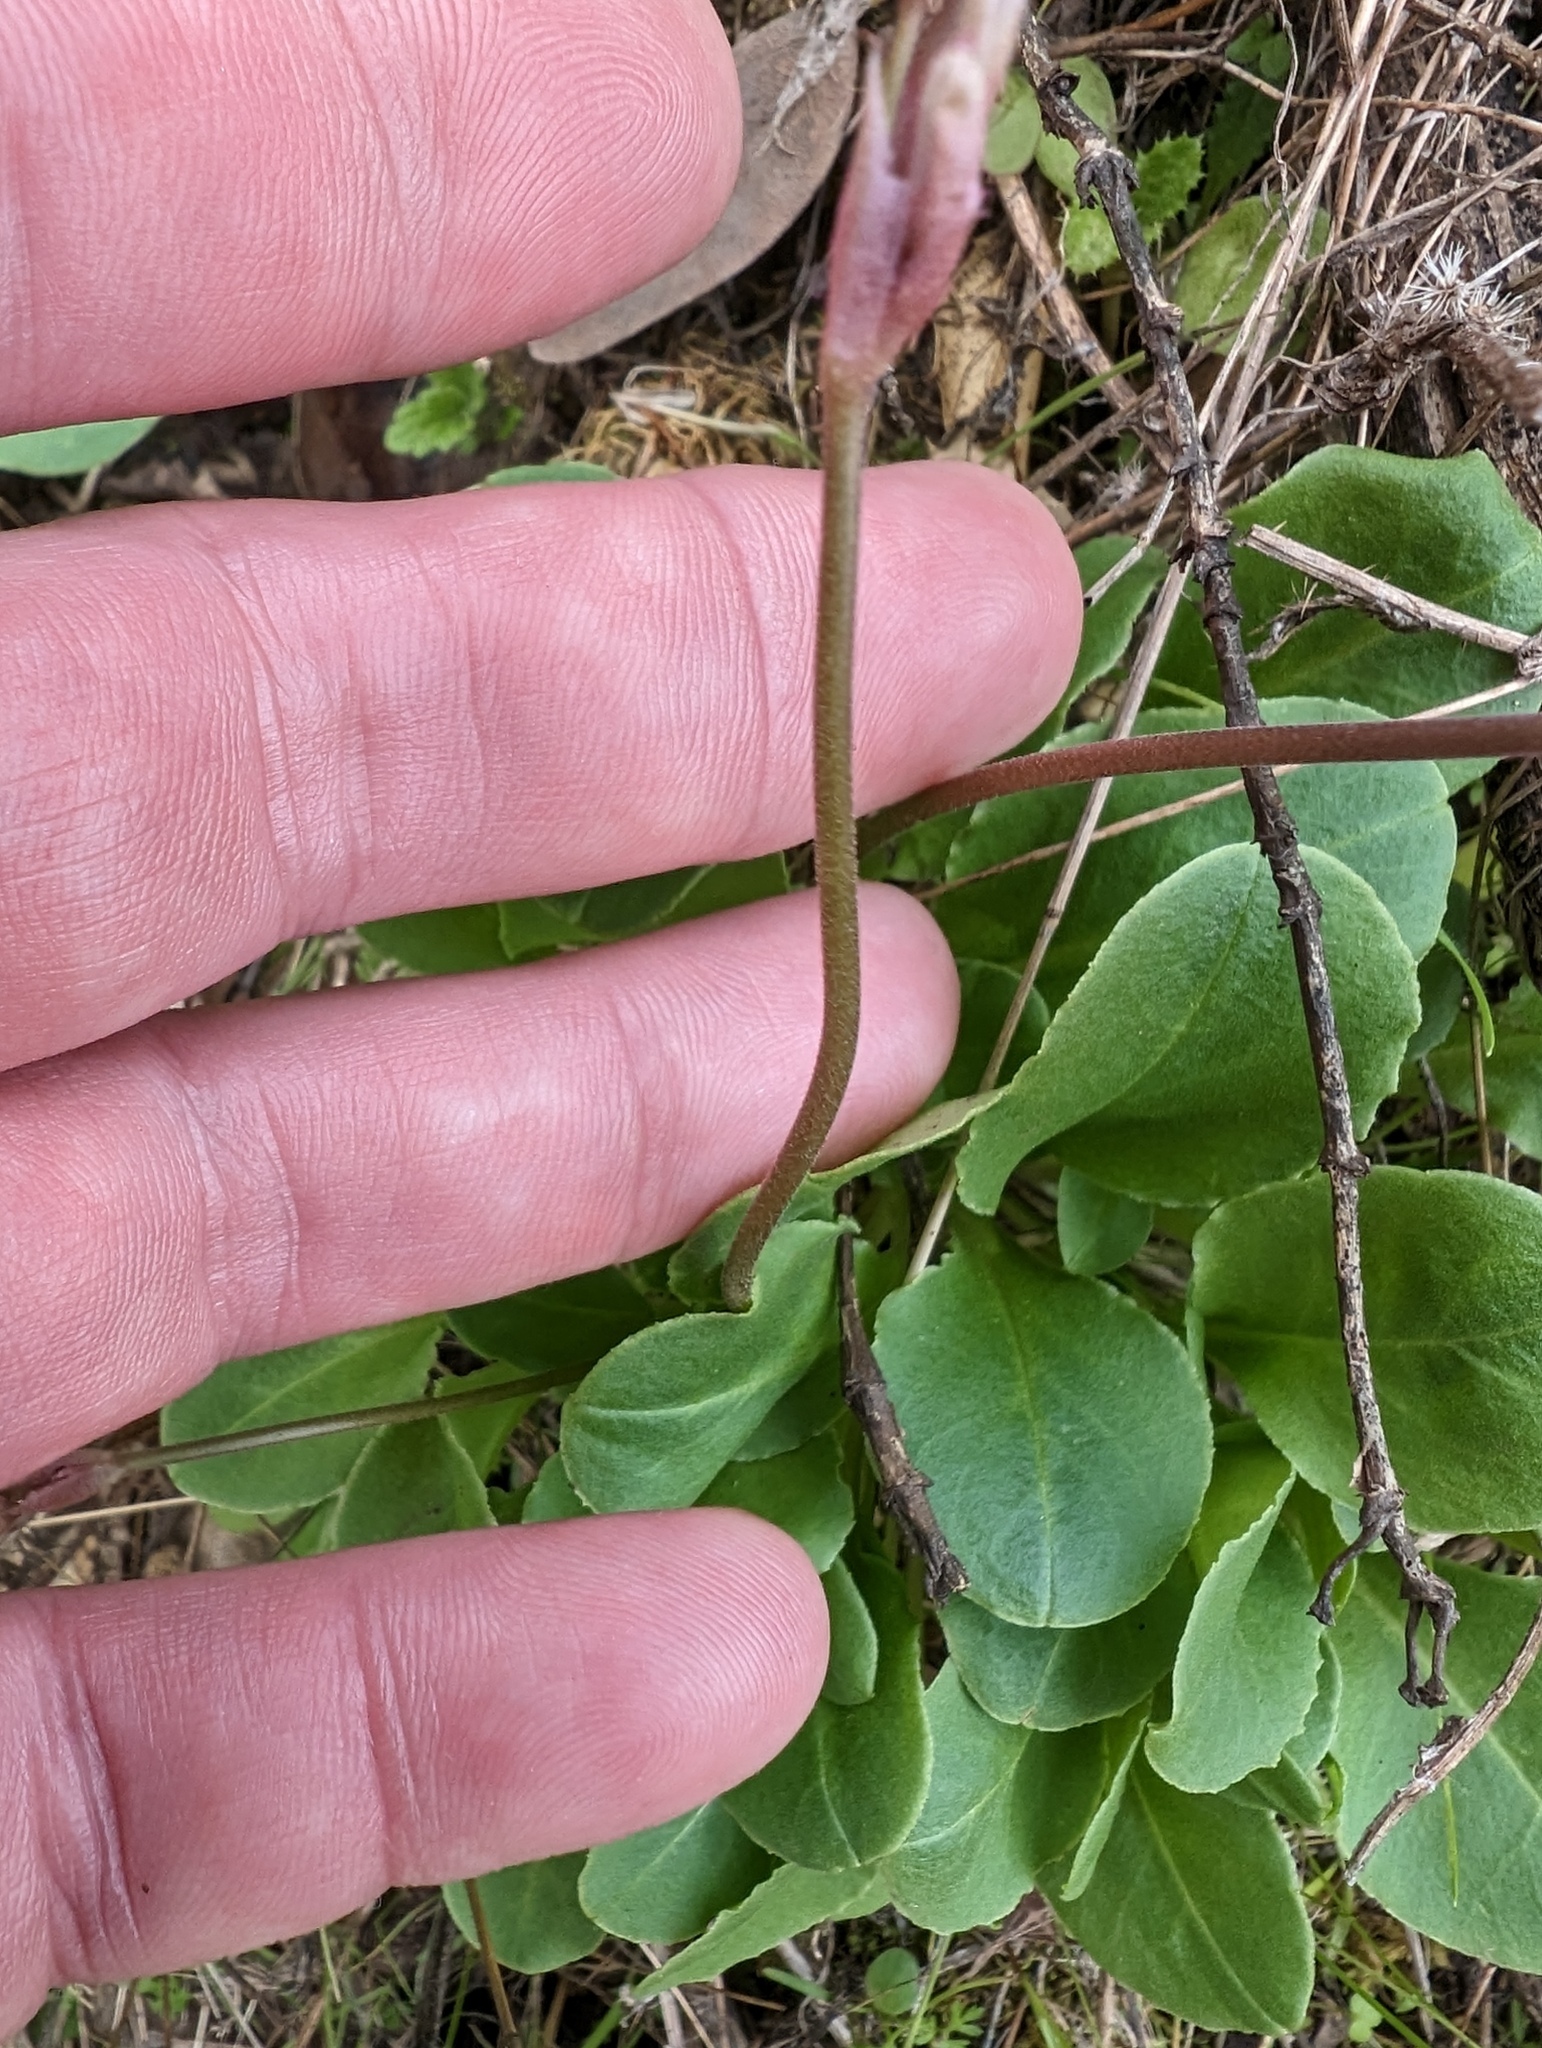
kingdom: Plantae
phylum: Tracheophyta
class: Magnoliopsida
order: Ericales
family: Primulaceae
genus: Dodecatheon
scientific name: Dodecatheon hendersonii
